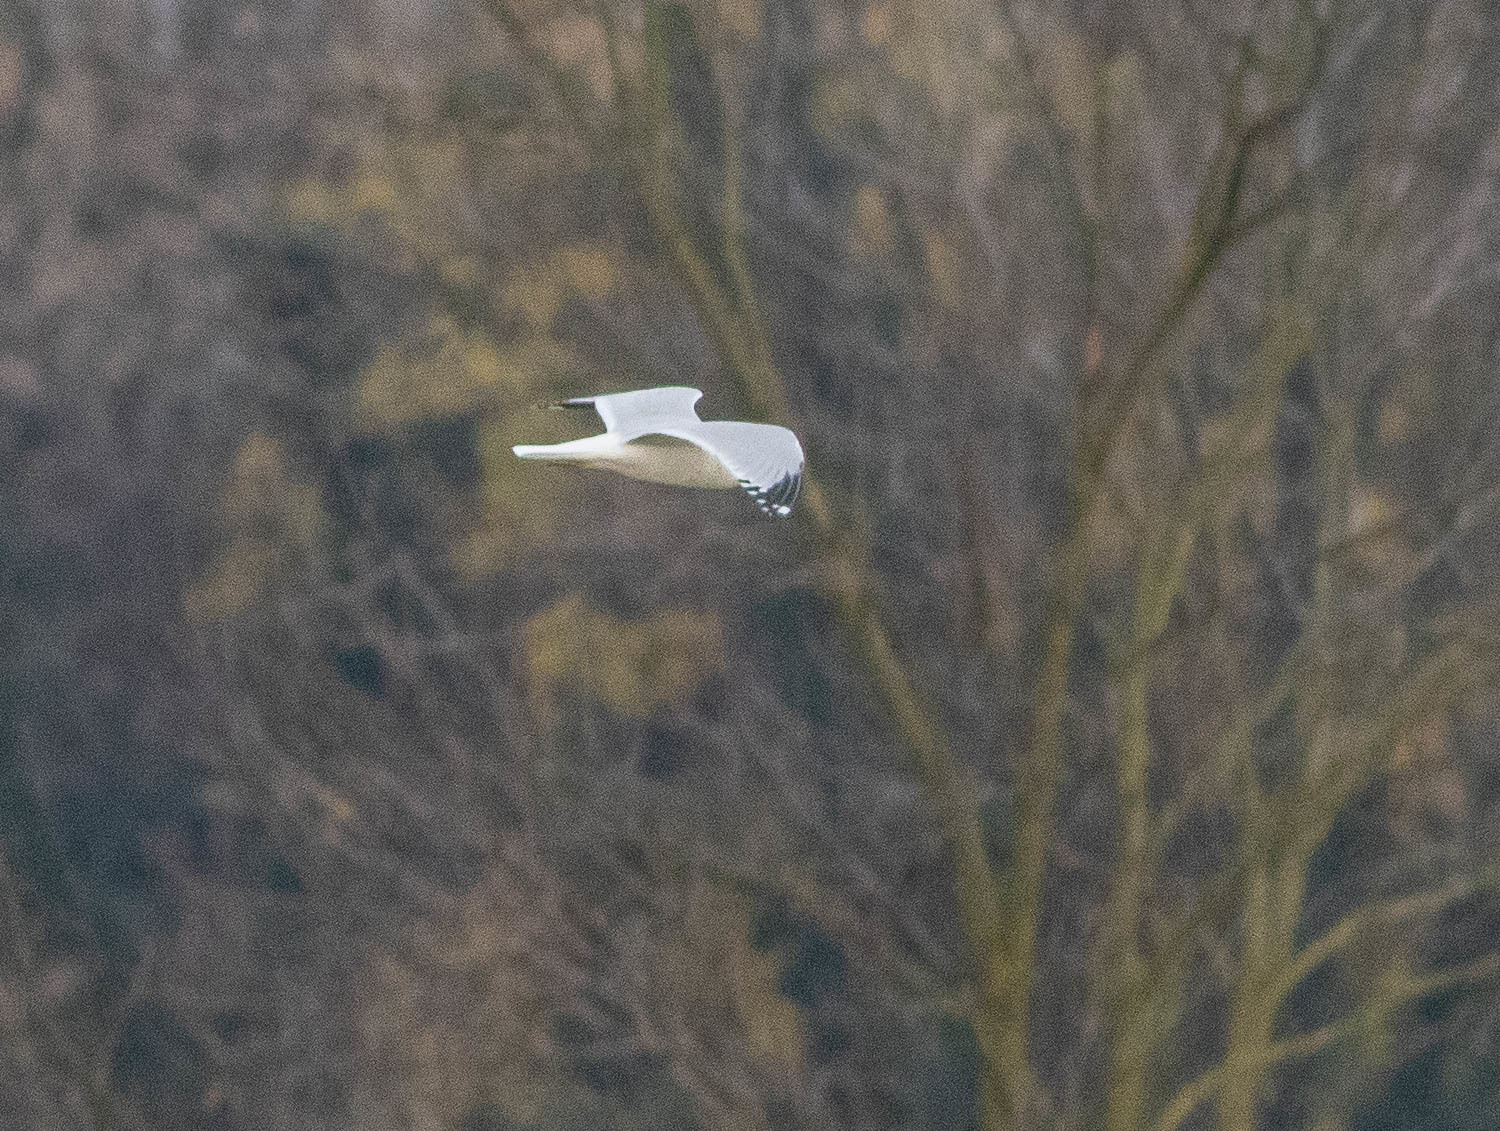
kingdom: Animalia
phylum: Chordata
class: Aves
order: Charadriiformes
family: Laridae
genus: Larus
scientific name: Larus delawarensis
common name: Ring-billed gull
